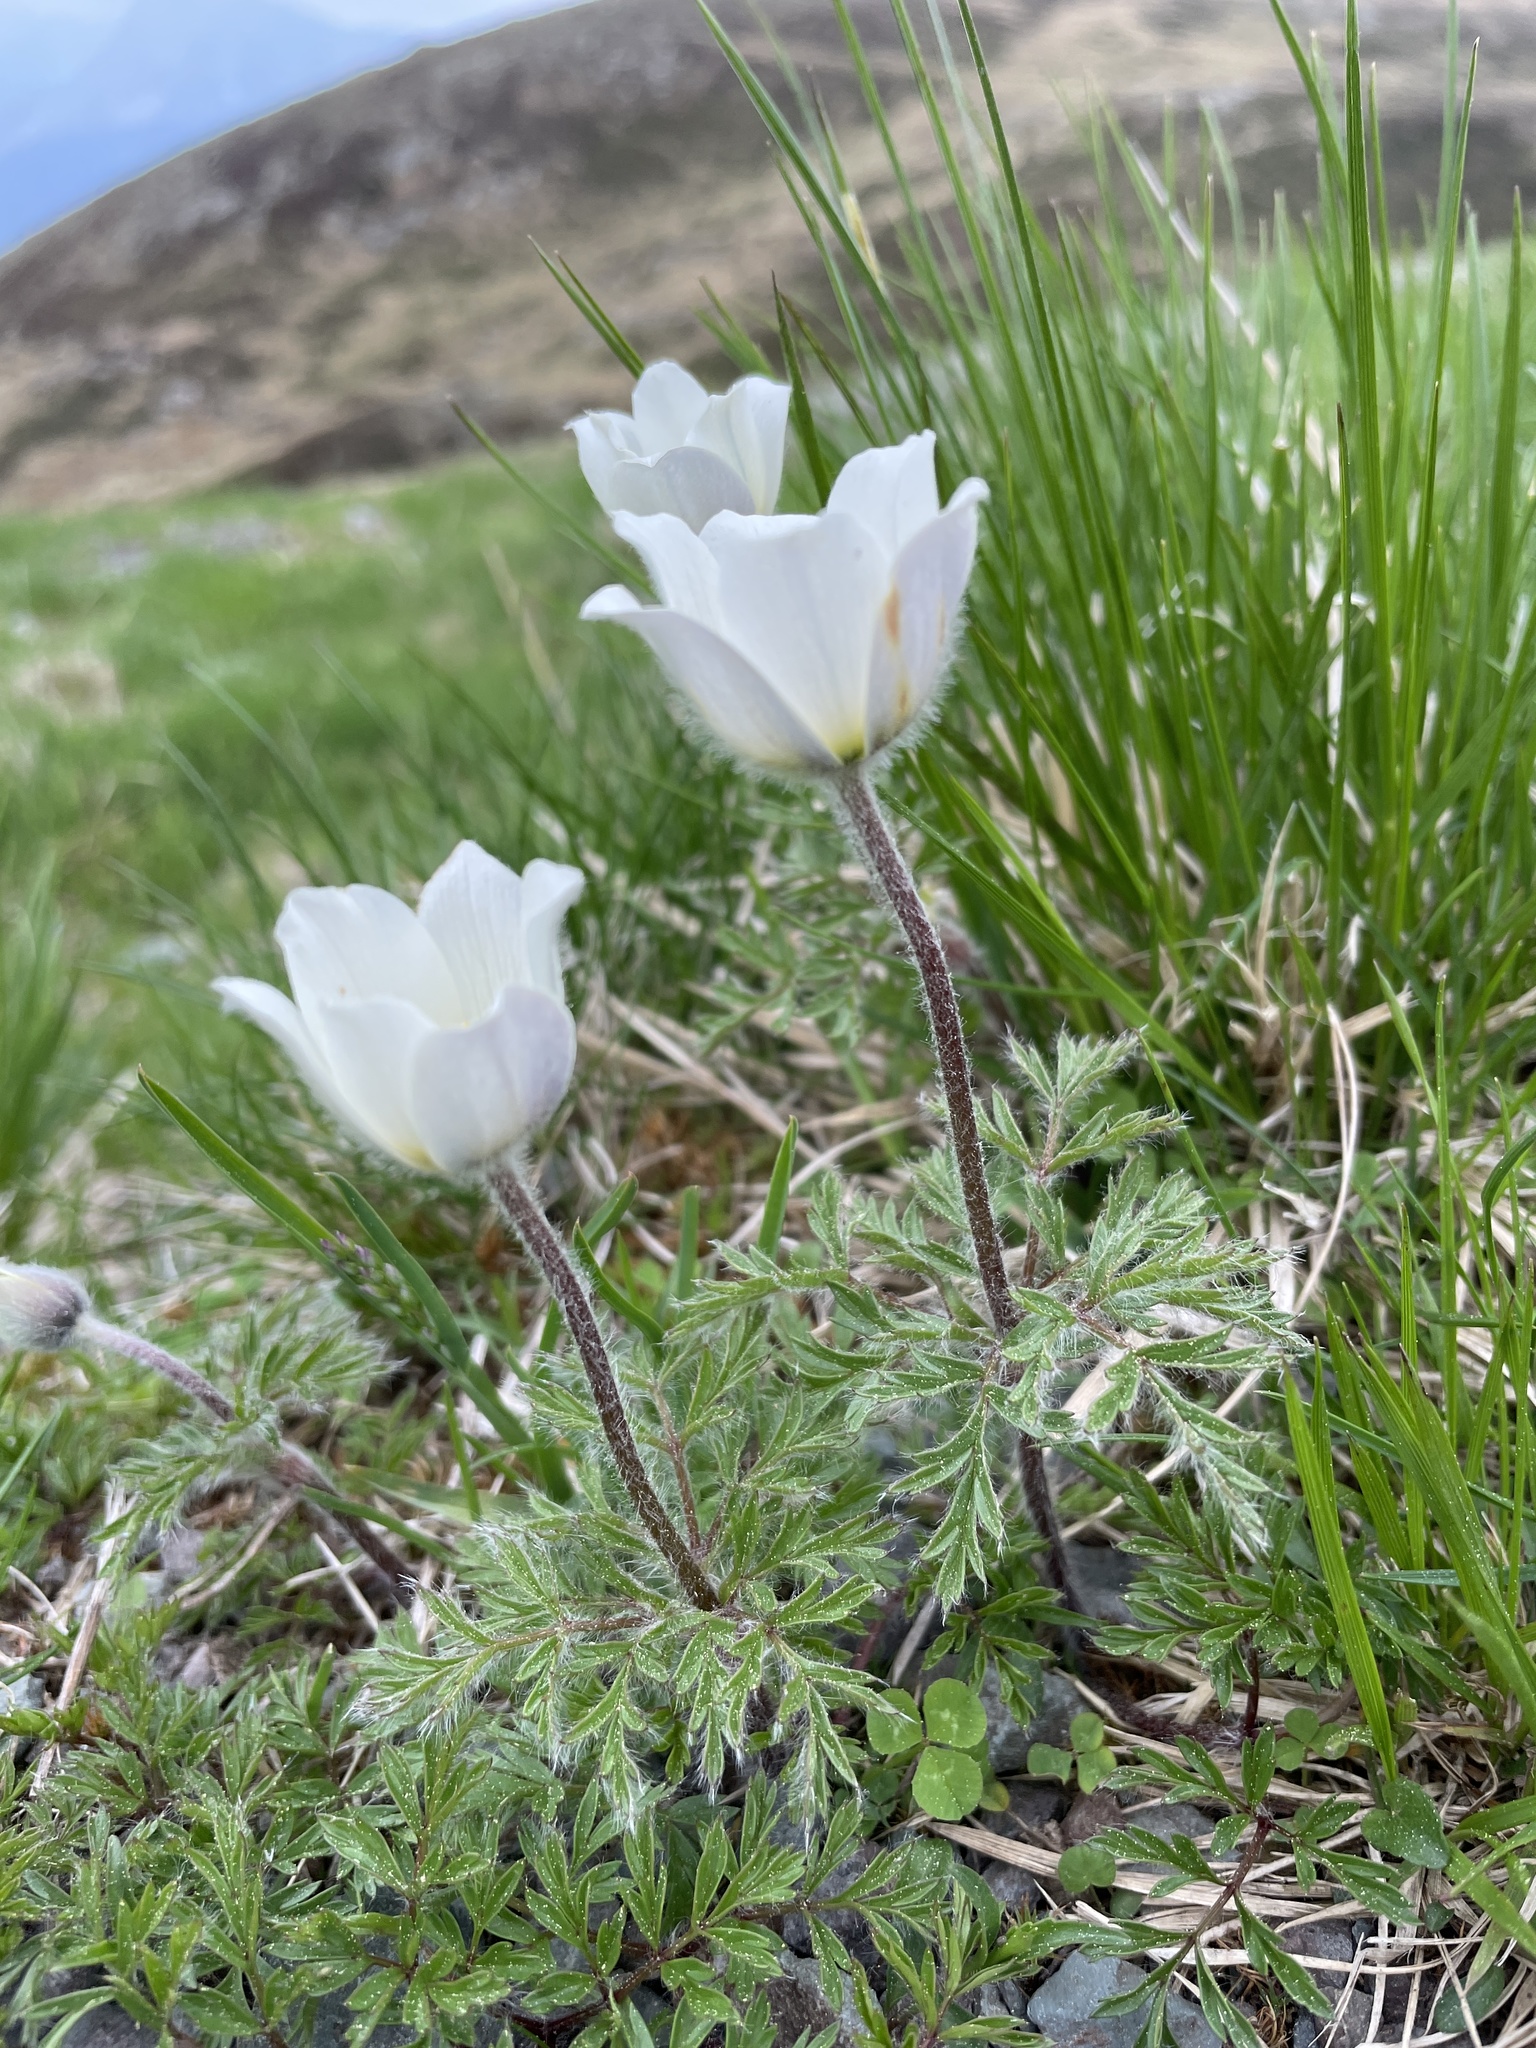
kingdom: Plantae
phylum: Tracheophyta
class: Magnoliopsida
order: Ranunculales
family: Ranunculaceae
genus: Pulsatilla
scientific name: Pulsatilla alpina
